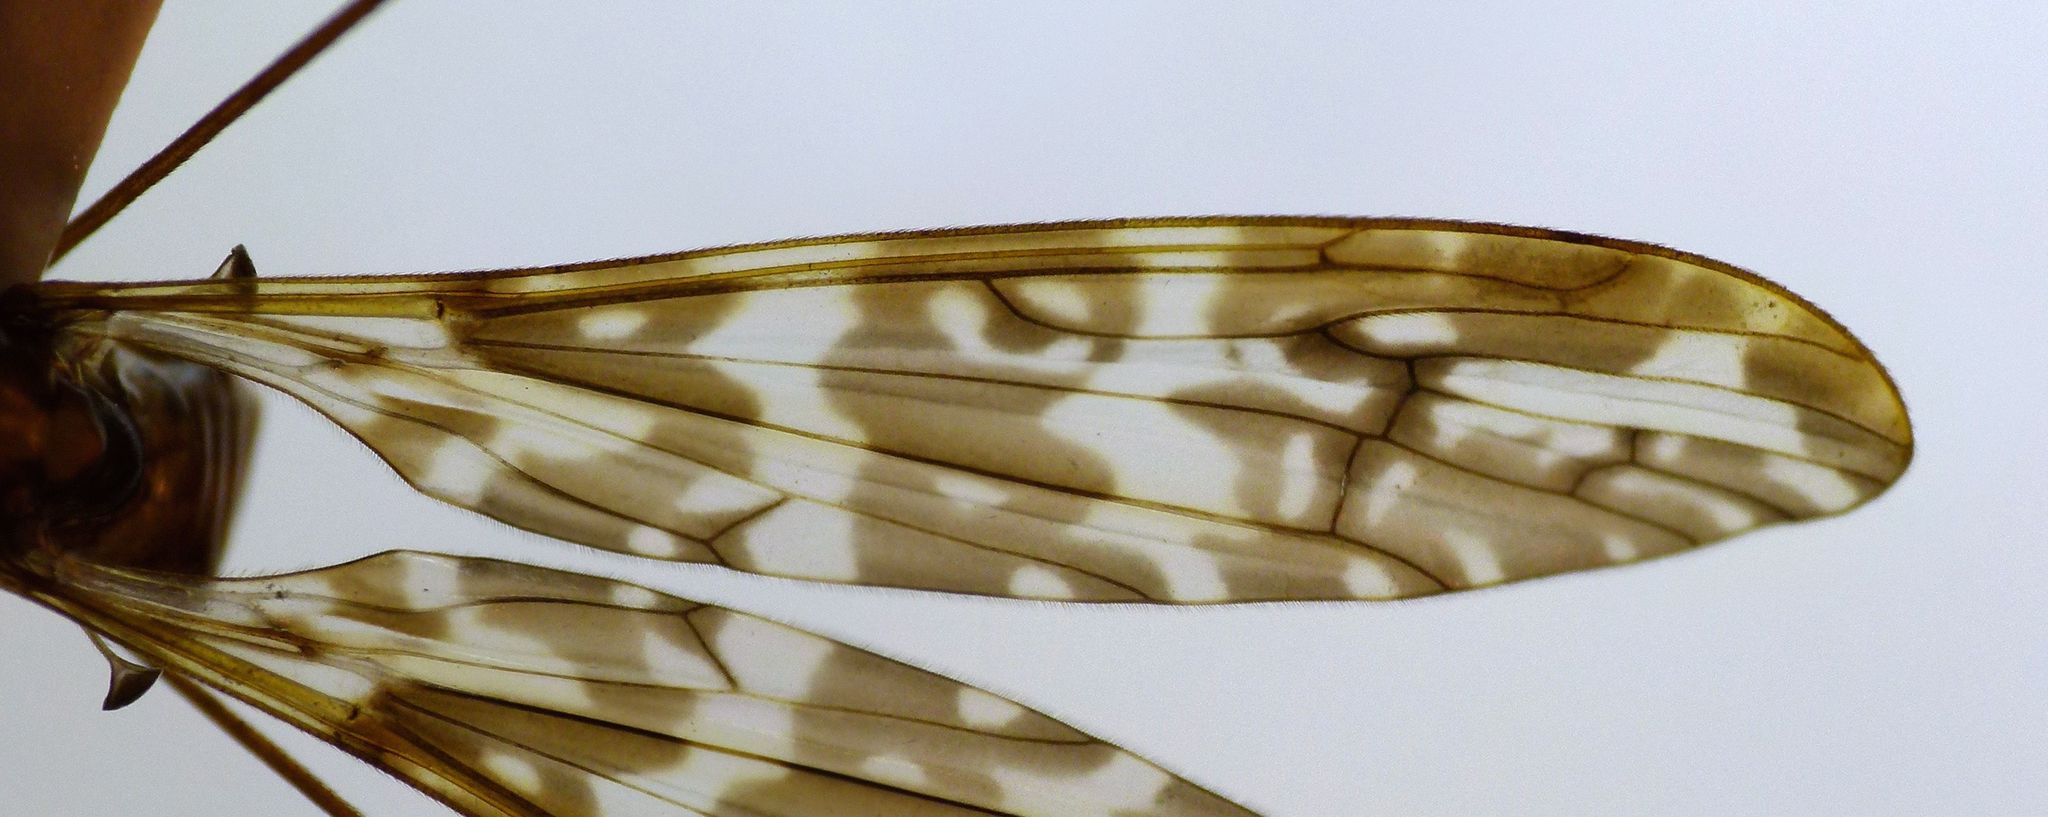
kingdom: Animalia
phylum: Arthropoda
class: Insecta
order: Diptera
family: Limoniidae
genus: Discobola
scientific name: Discobola dohrni
